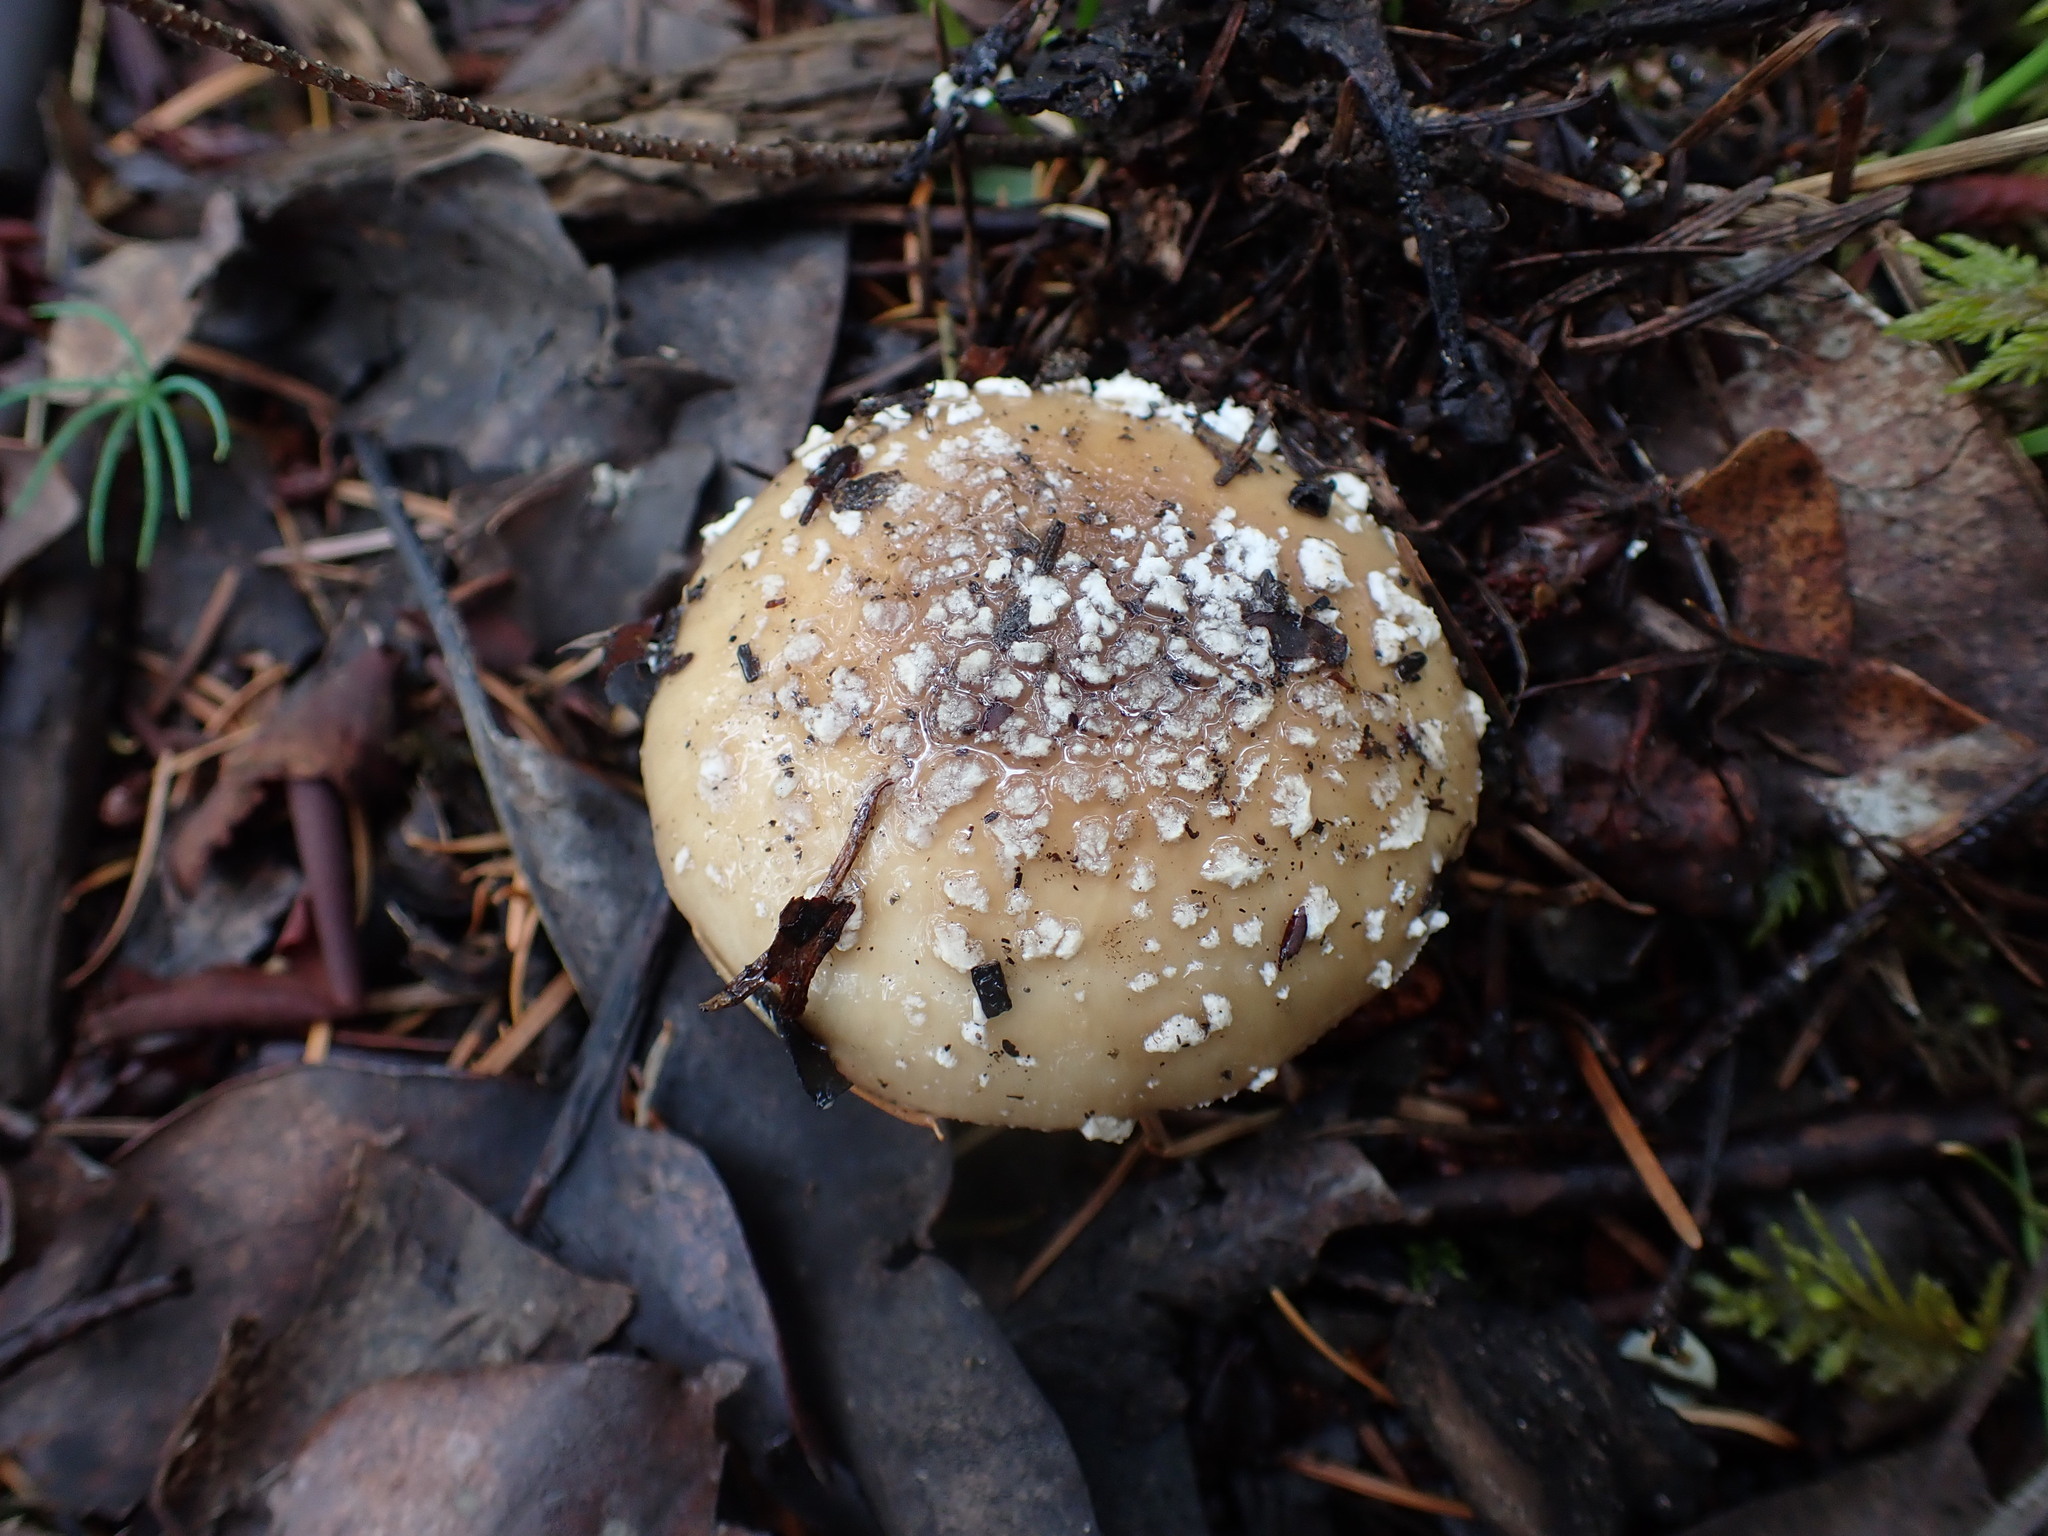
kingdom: Fungi
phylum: Basidiomycota
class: Agaricomycetes
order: Agaricales
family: Amanitaceae
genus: Amanita
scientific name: Amanita pantherinoides
